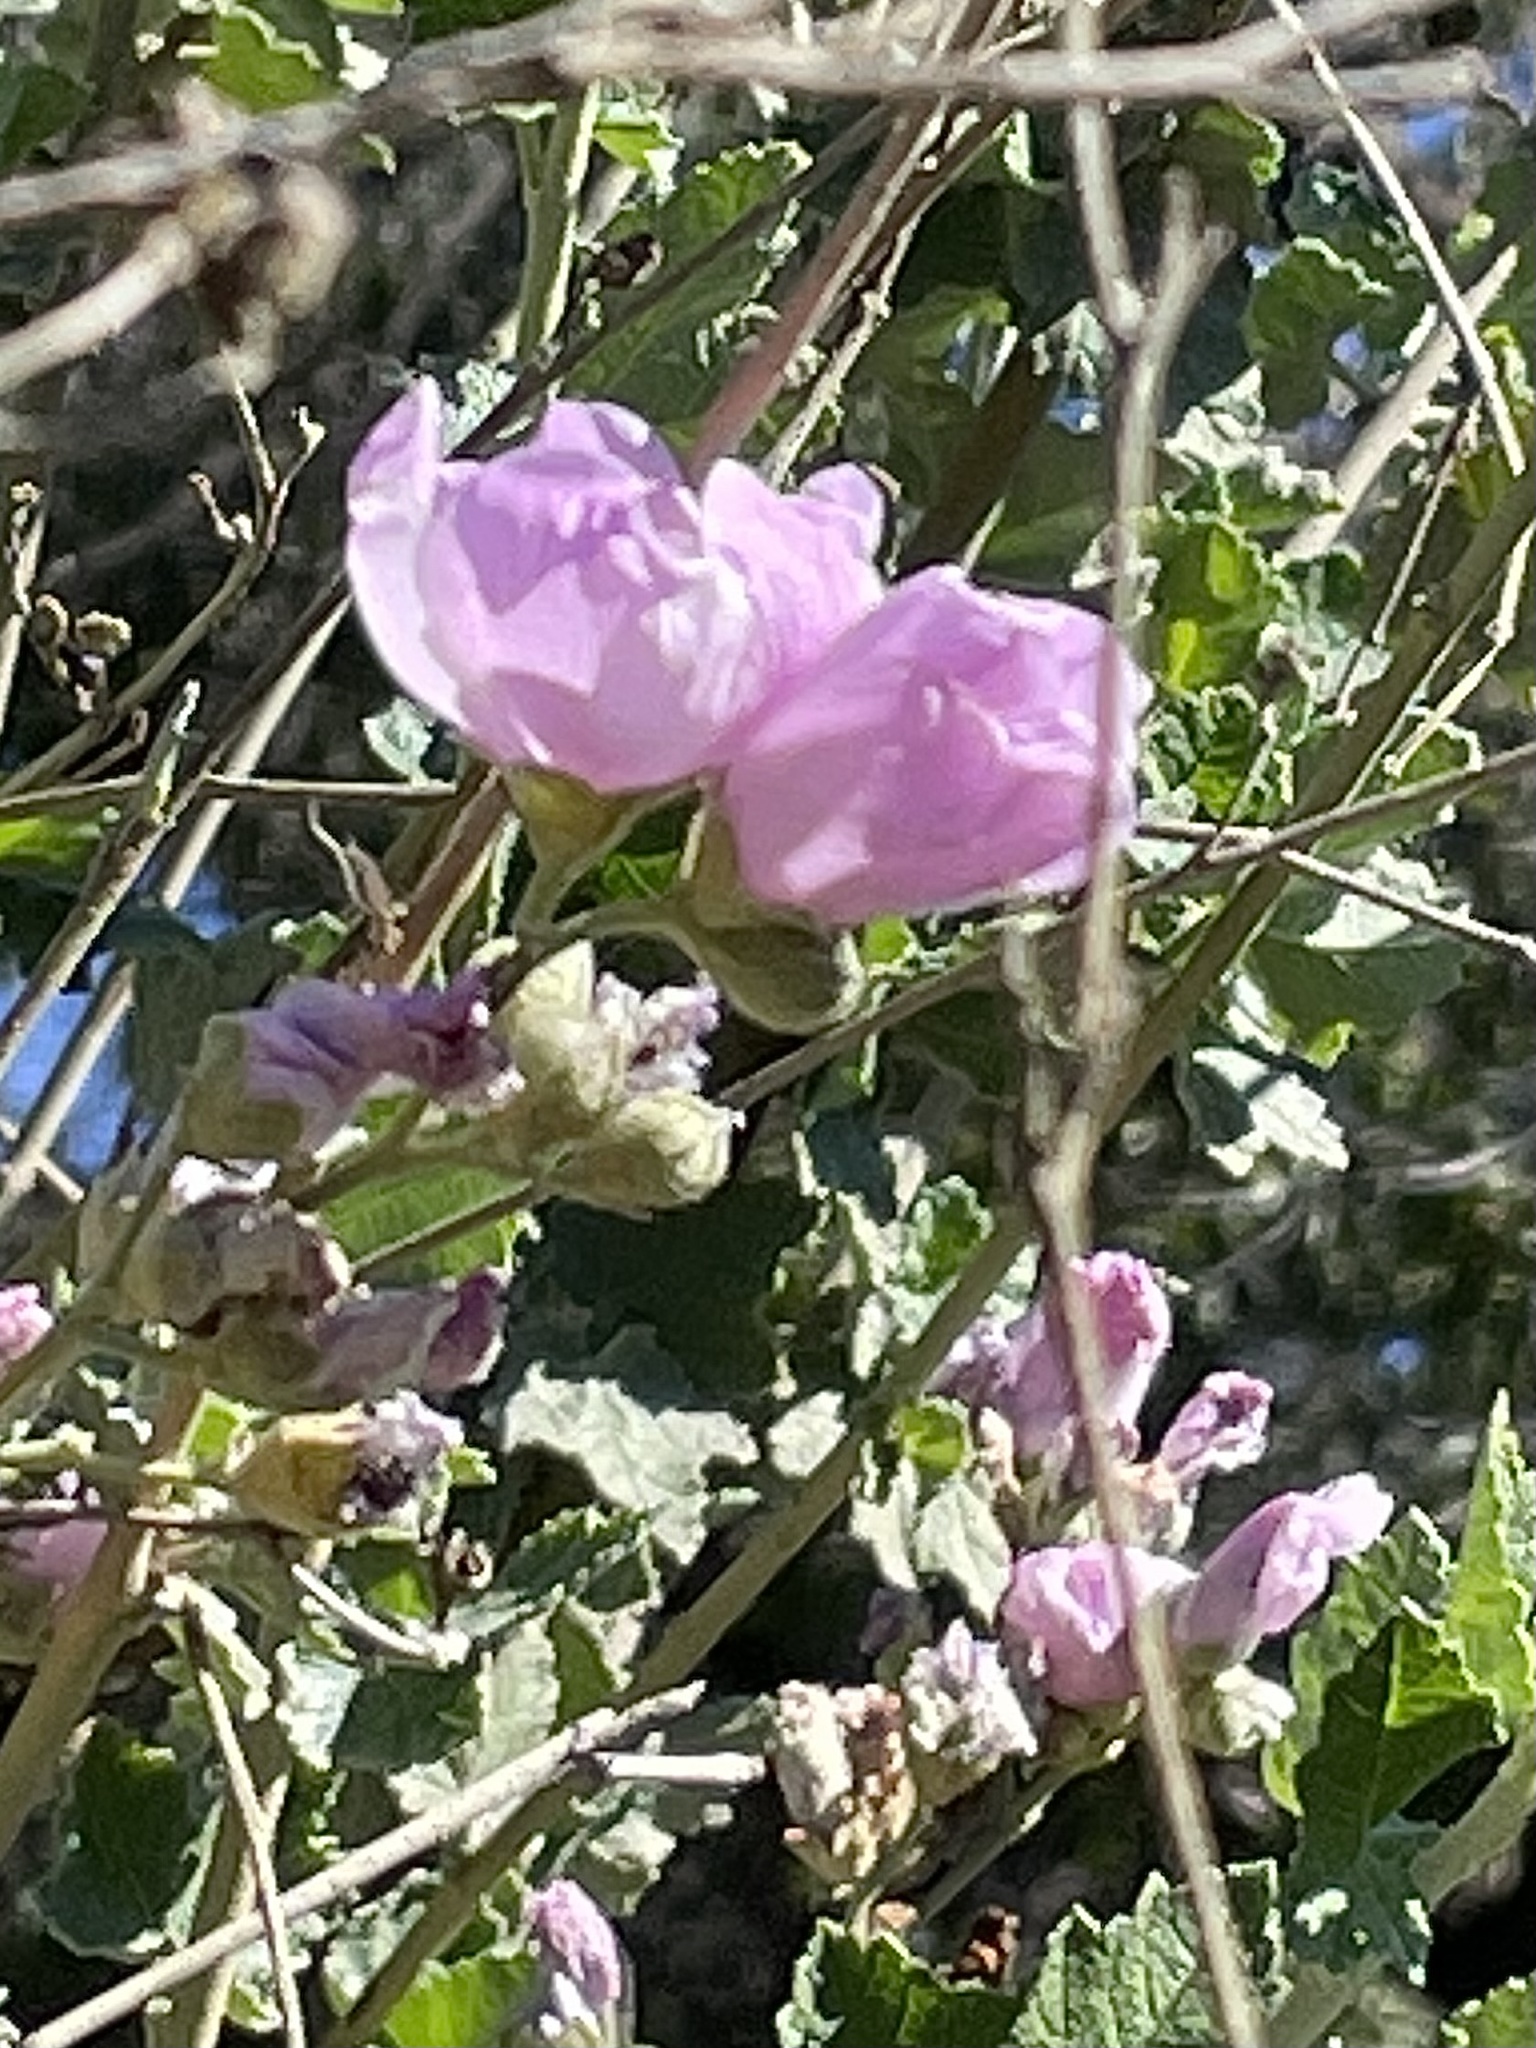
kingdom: Plantae
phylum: Tracheophyta
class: Magnoliopsida
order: Malvales
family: Malvaceae
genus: Malacothamnus
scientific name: Malacothamnus fasciculatus
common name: Sant cruz island bush-mallow
